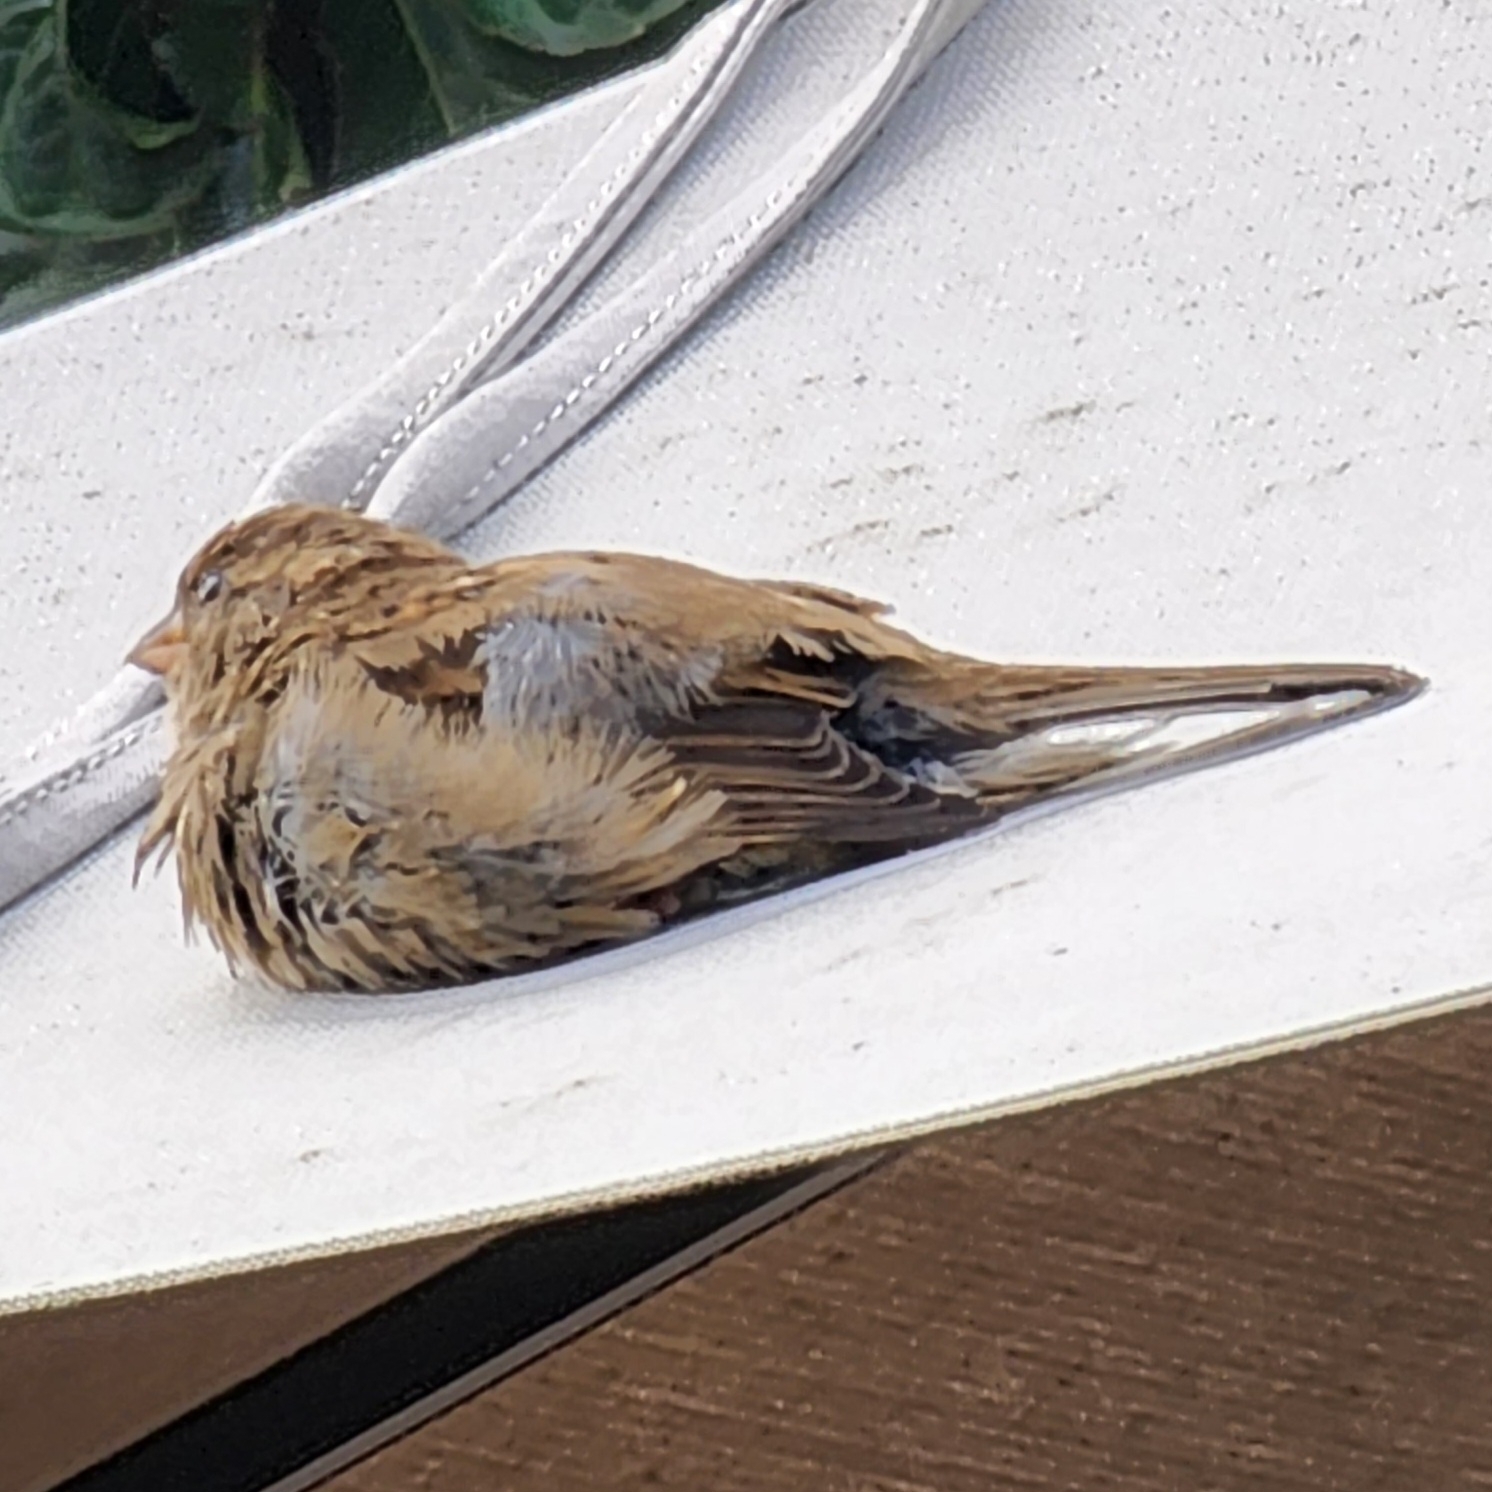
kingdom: Animalia
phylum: Chordata
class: Aves
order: Passeriformes
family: Passeridae
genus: Passer
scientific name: Passer domesticus
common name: House sparrow
